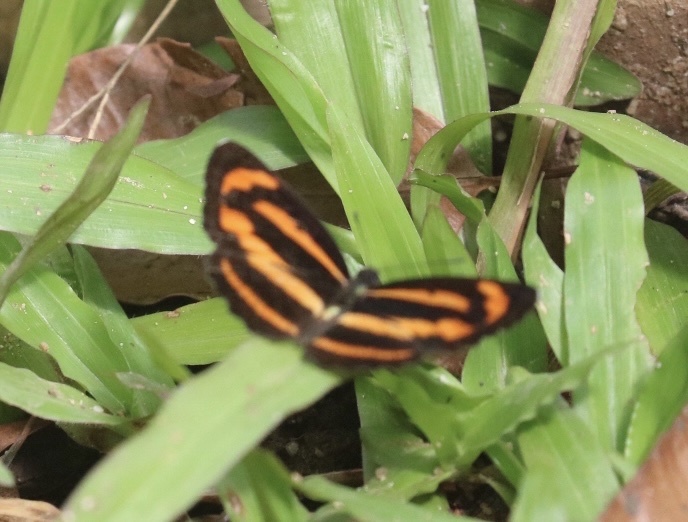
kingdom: Animalia
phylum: Arthropoda
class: Insecta
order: Lepidoptera
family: Nymphalidae
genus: Neptis
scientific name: Neptis miah
